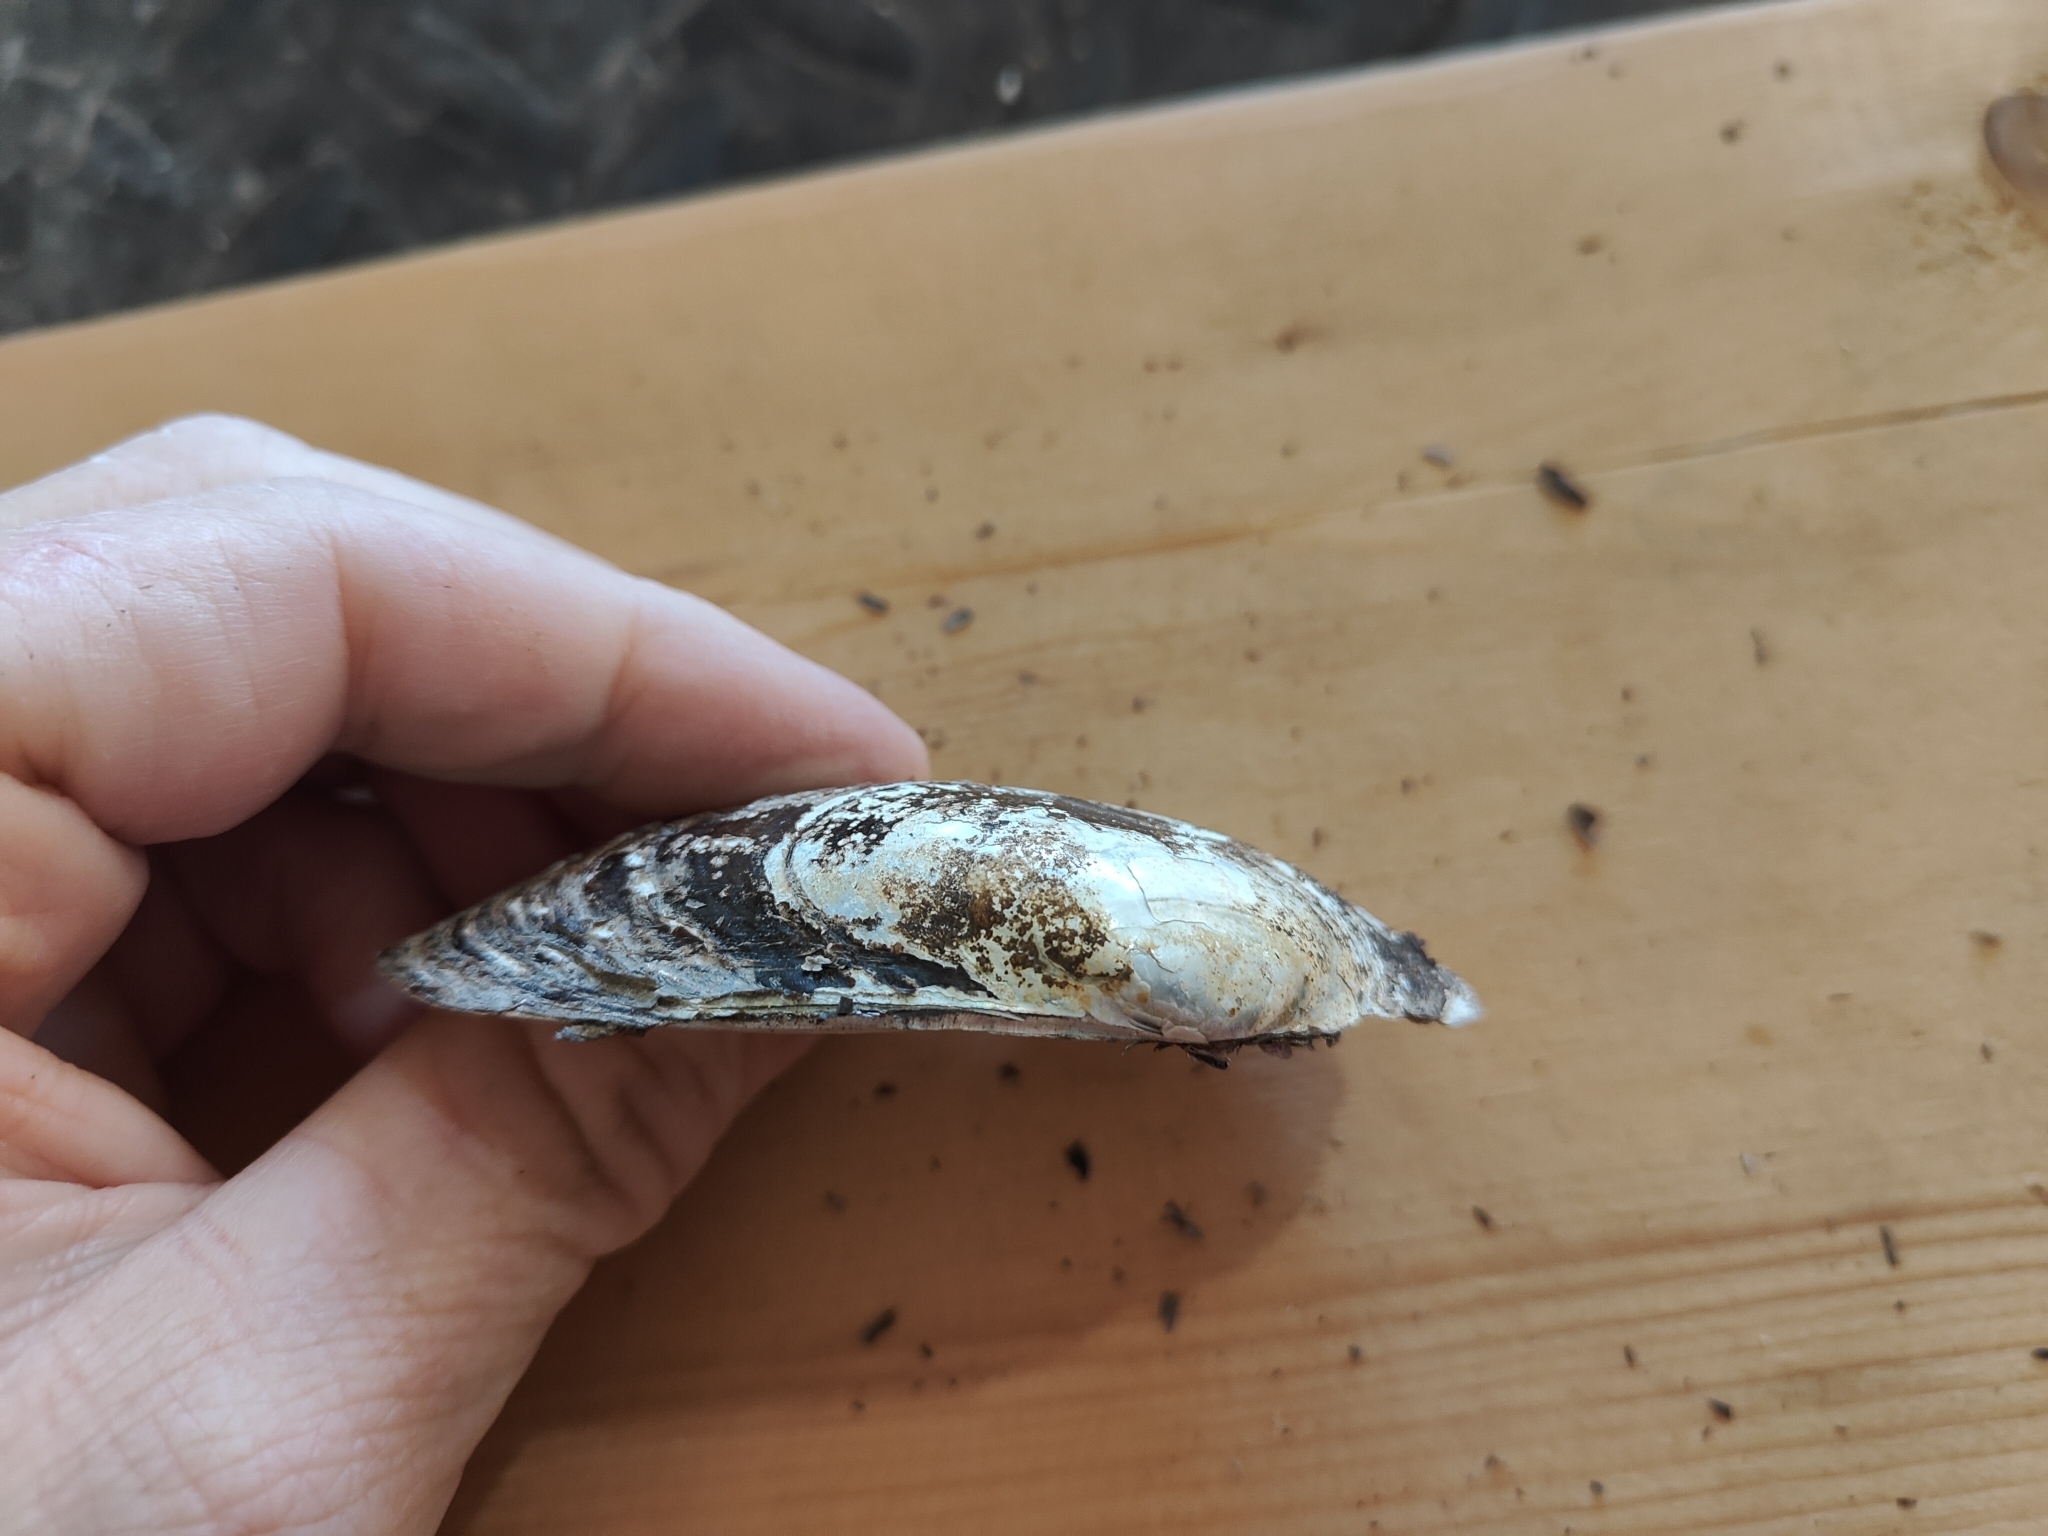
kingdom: Animalia
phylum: Mollusca
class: Bivalvia
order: Unionida
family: Unionidae
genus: Lampsilis
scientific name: Lampsilis siliquoidea
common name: Fatmucket
